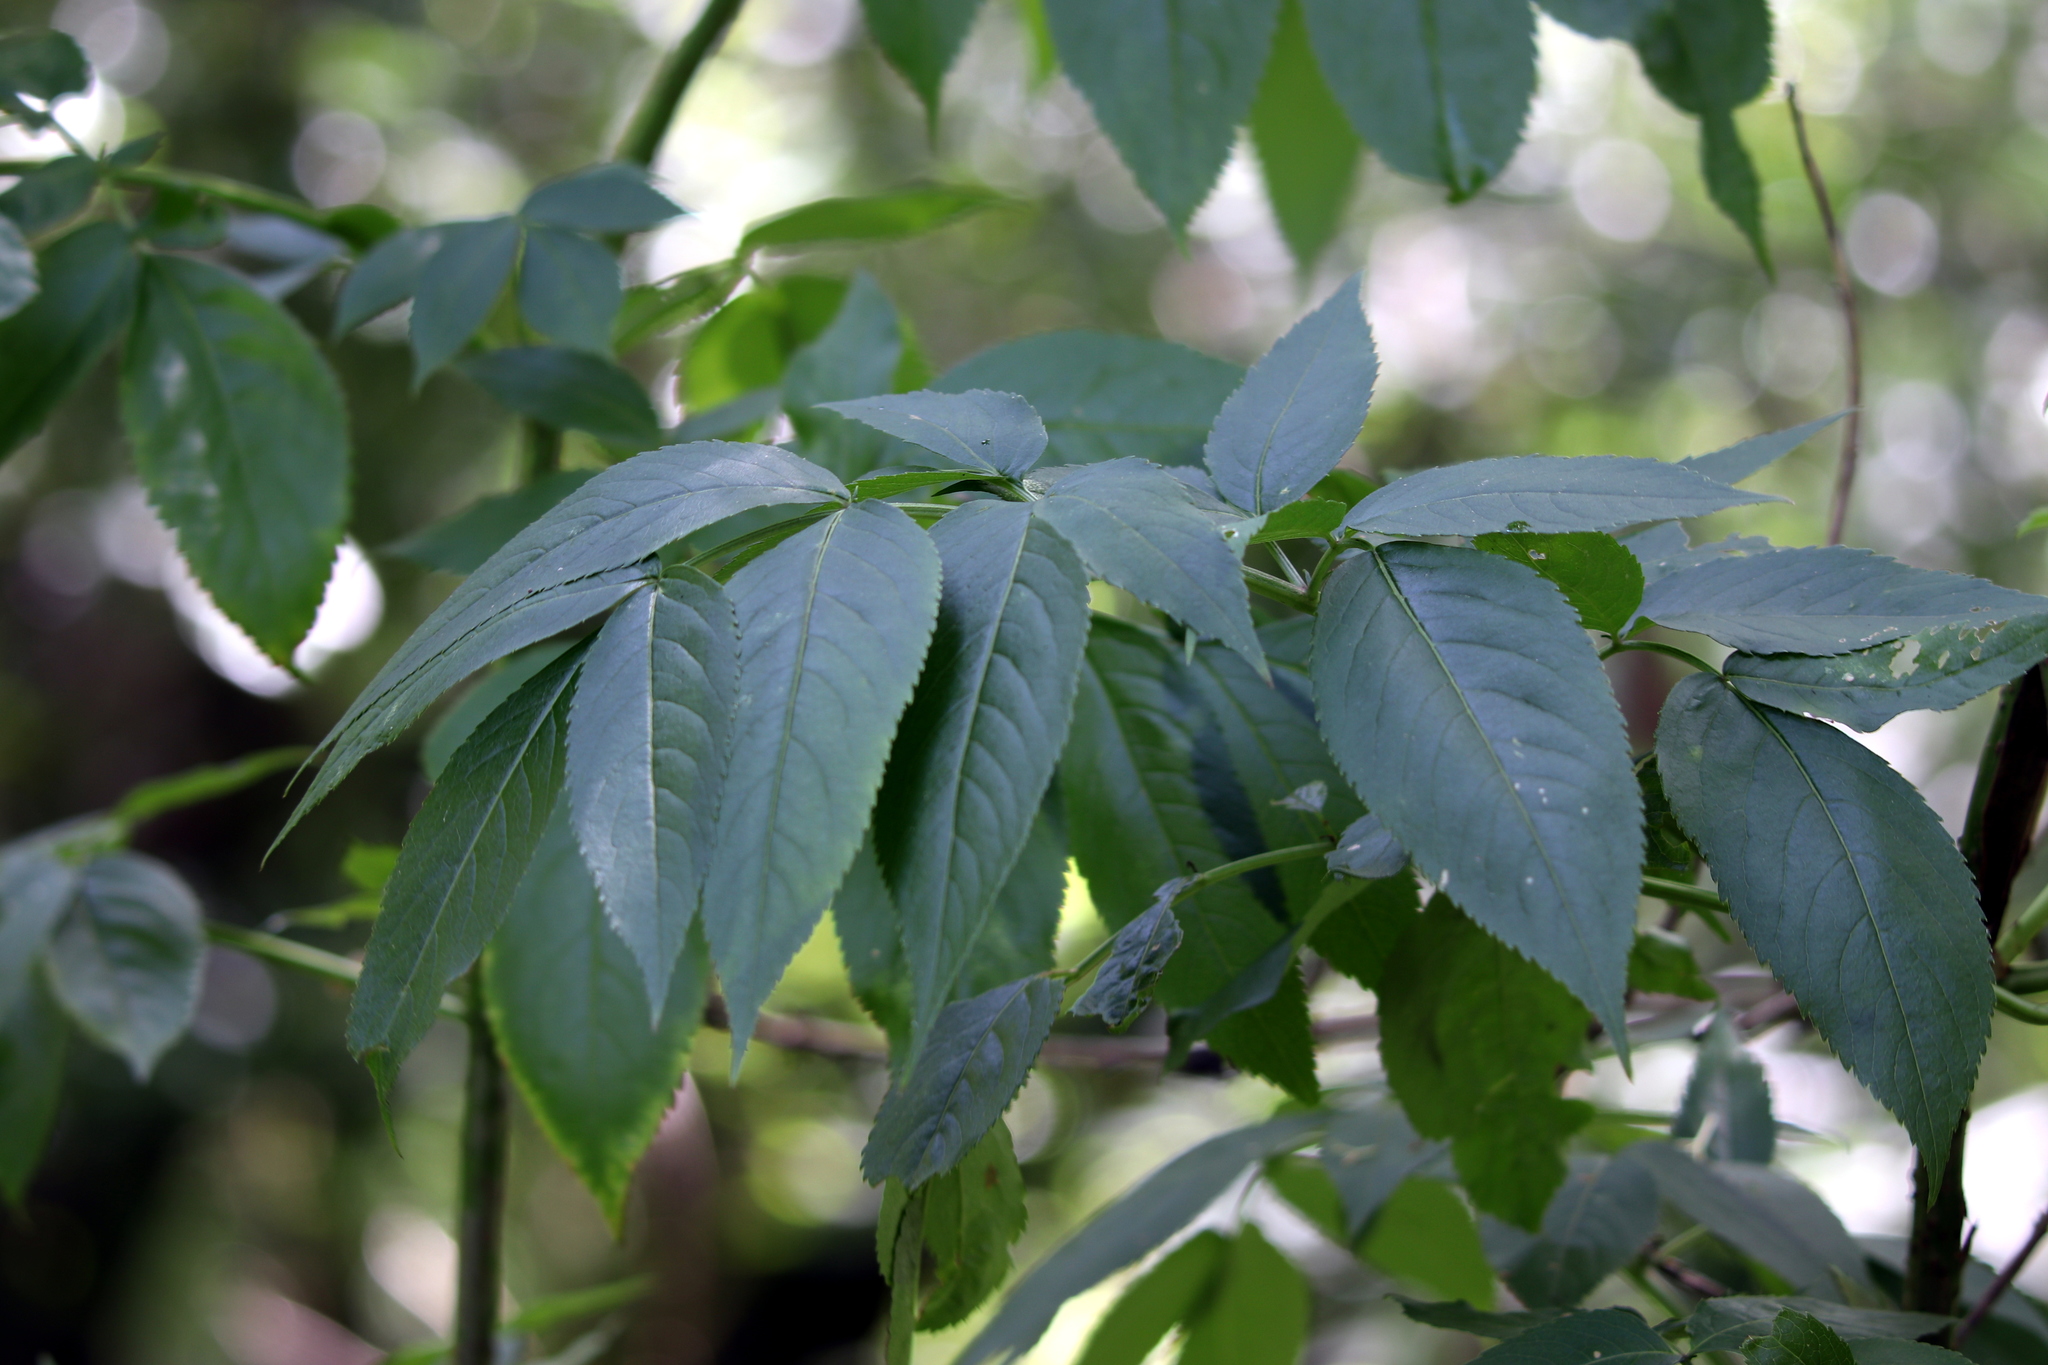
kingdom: Plantae
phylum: Tracheophyta
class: Magnoliopsida
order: Dipsacales
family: Viburnaceae
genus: Sambucus
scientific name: Sambucus canadensis
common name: American elder
